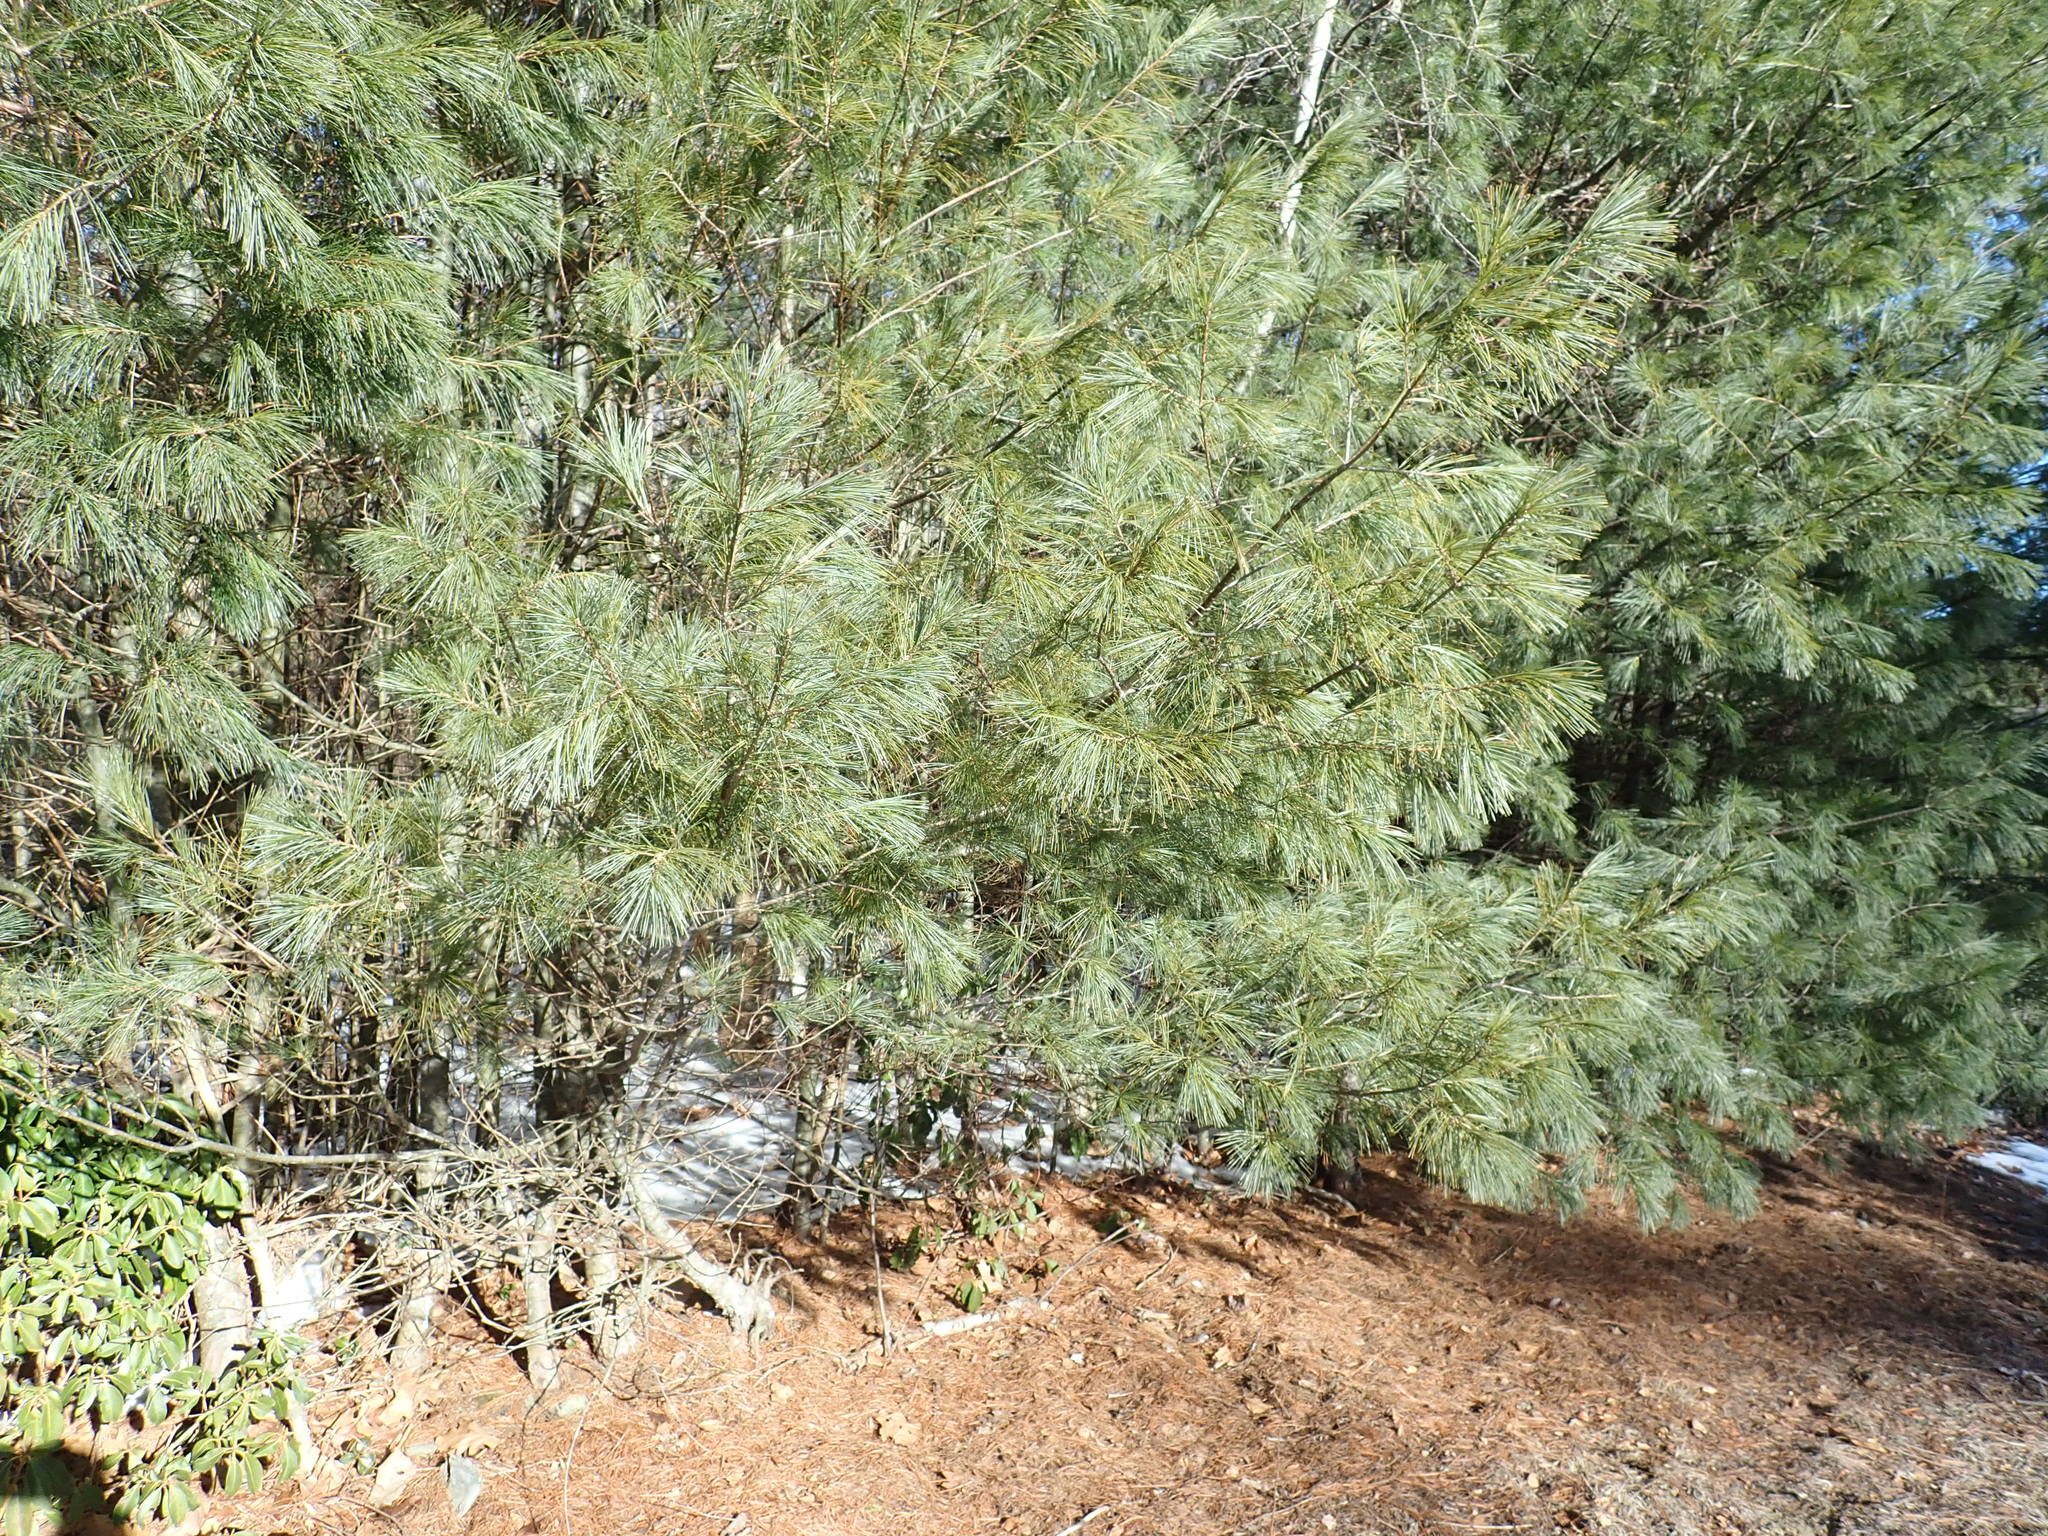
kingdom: Plantae
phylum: Tracheophyta
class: Pinopsida
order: Pinales
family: Pinaceae
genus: Pinus
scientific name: Pinus strobus
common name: Weymouth pine
